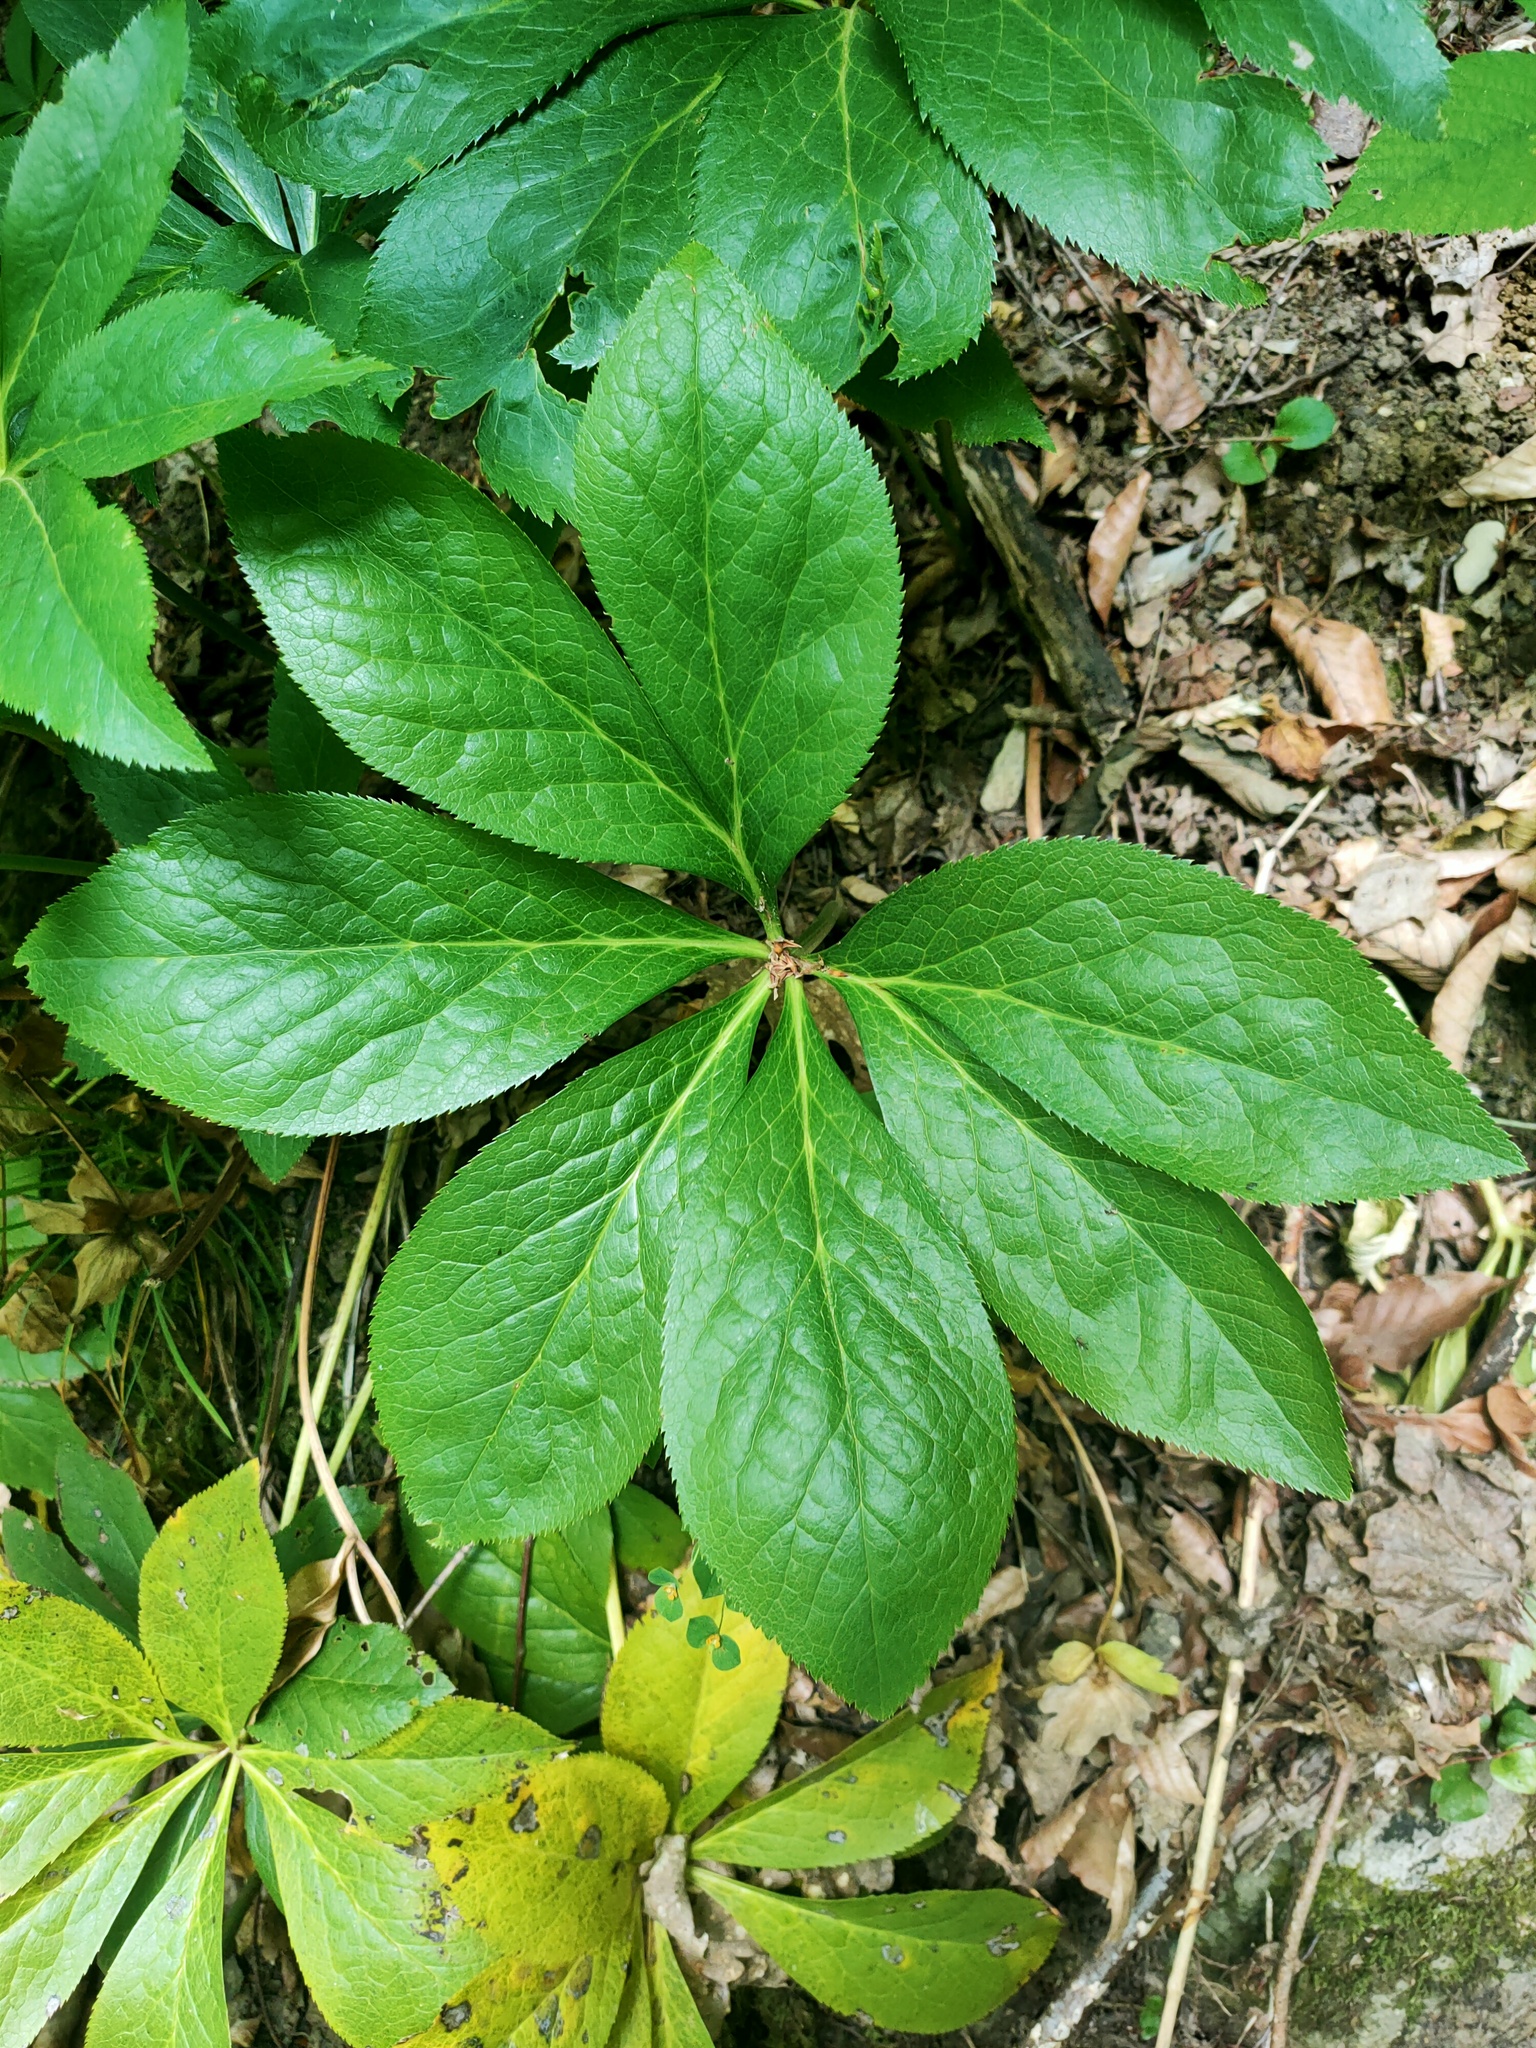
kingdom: Plantae
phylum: Tracheophyta
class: Magnoliopsida
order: Ranunculales
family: Ranunculaceae
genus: Helleborus
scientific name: Helleborus orientalis
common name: Lenten-rose
